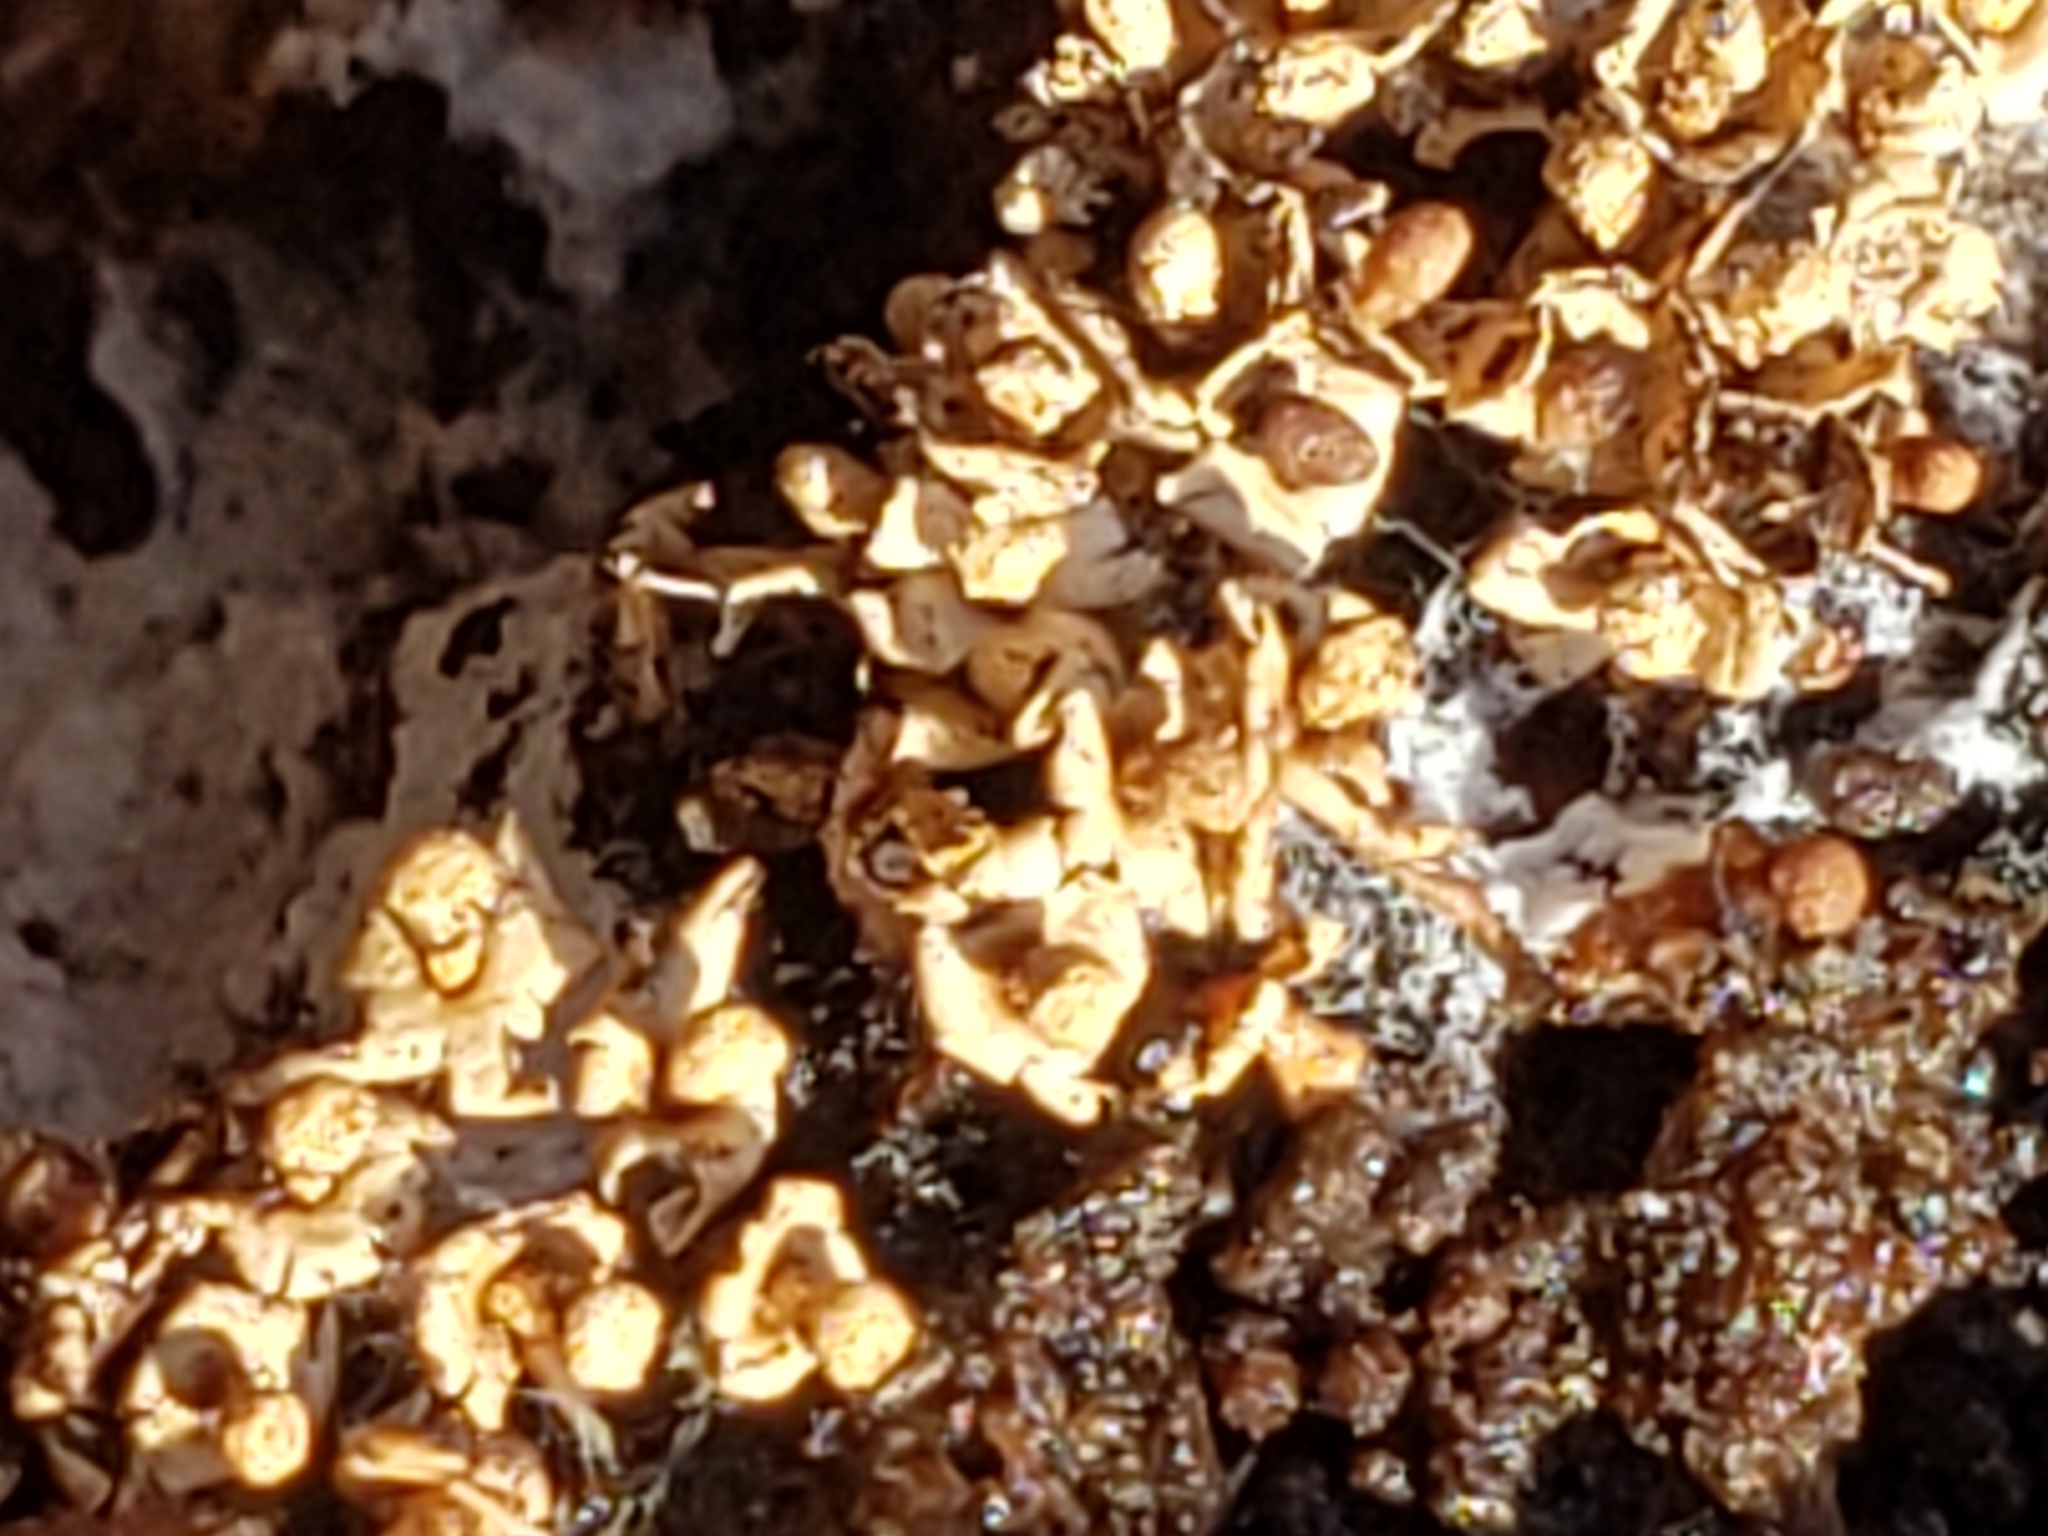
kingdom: Protozoa
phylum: Mycetozoa
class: Myxomycetes
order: Physarales
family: Didymiaceae
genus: Diderma
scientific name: Diderma floriforme
